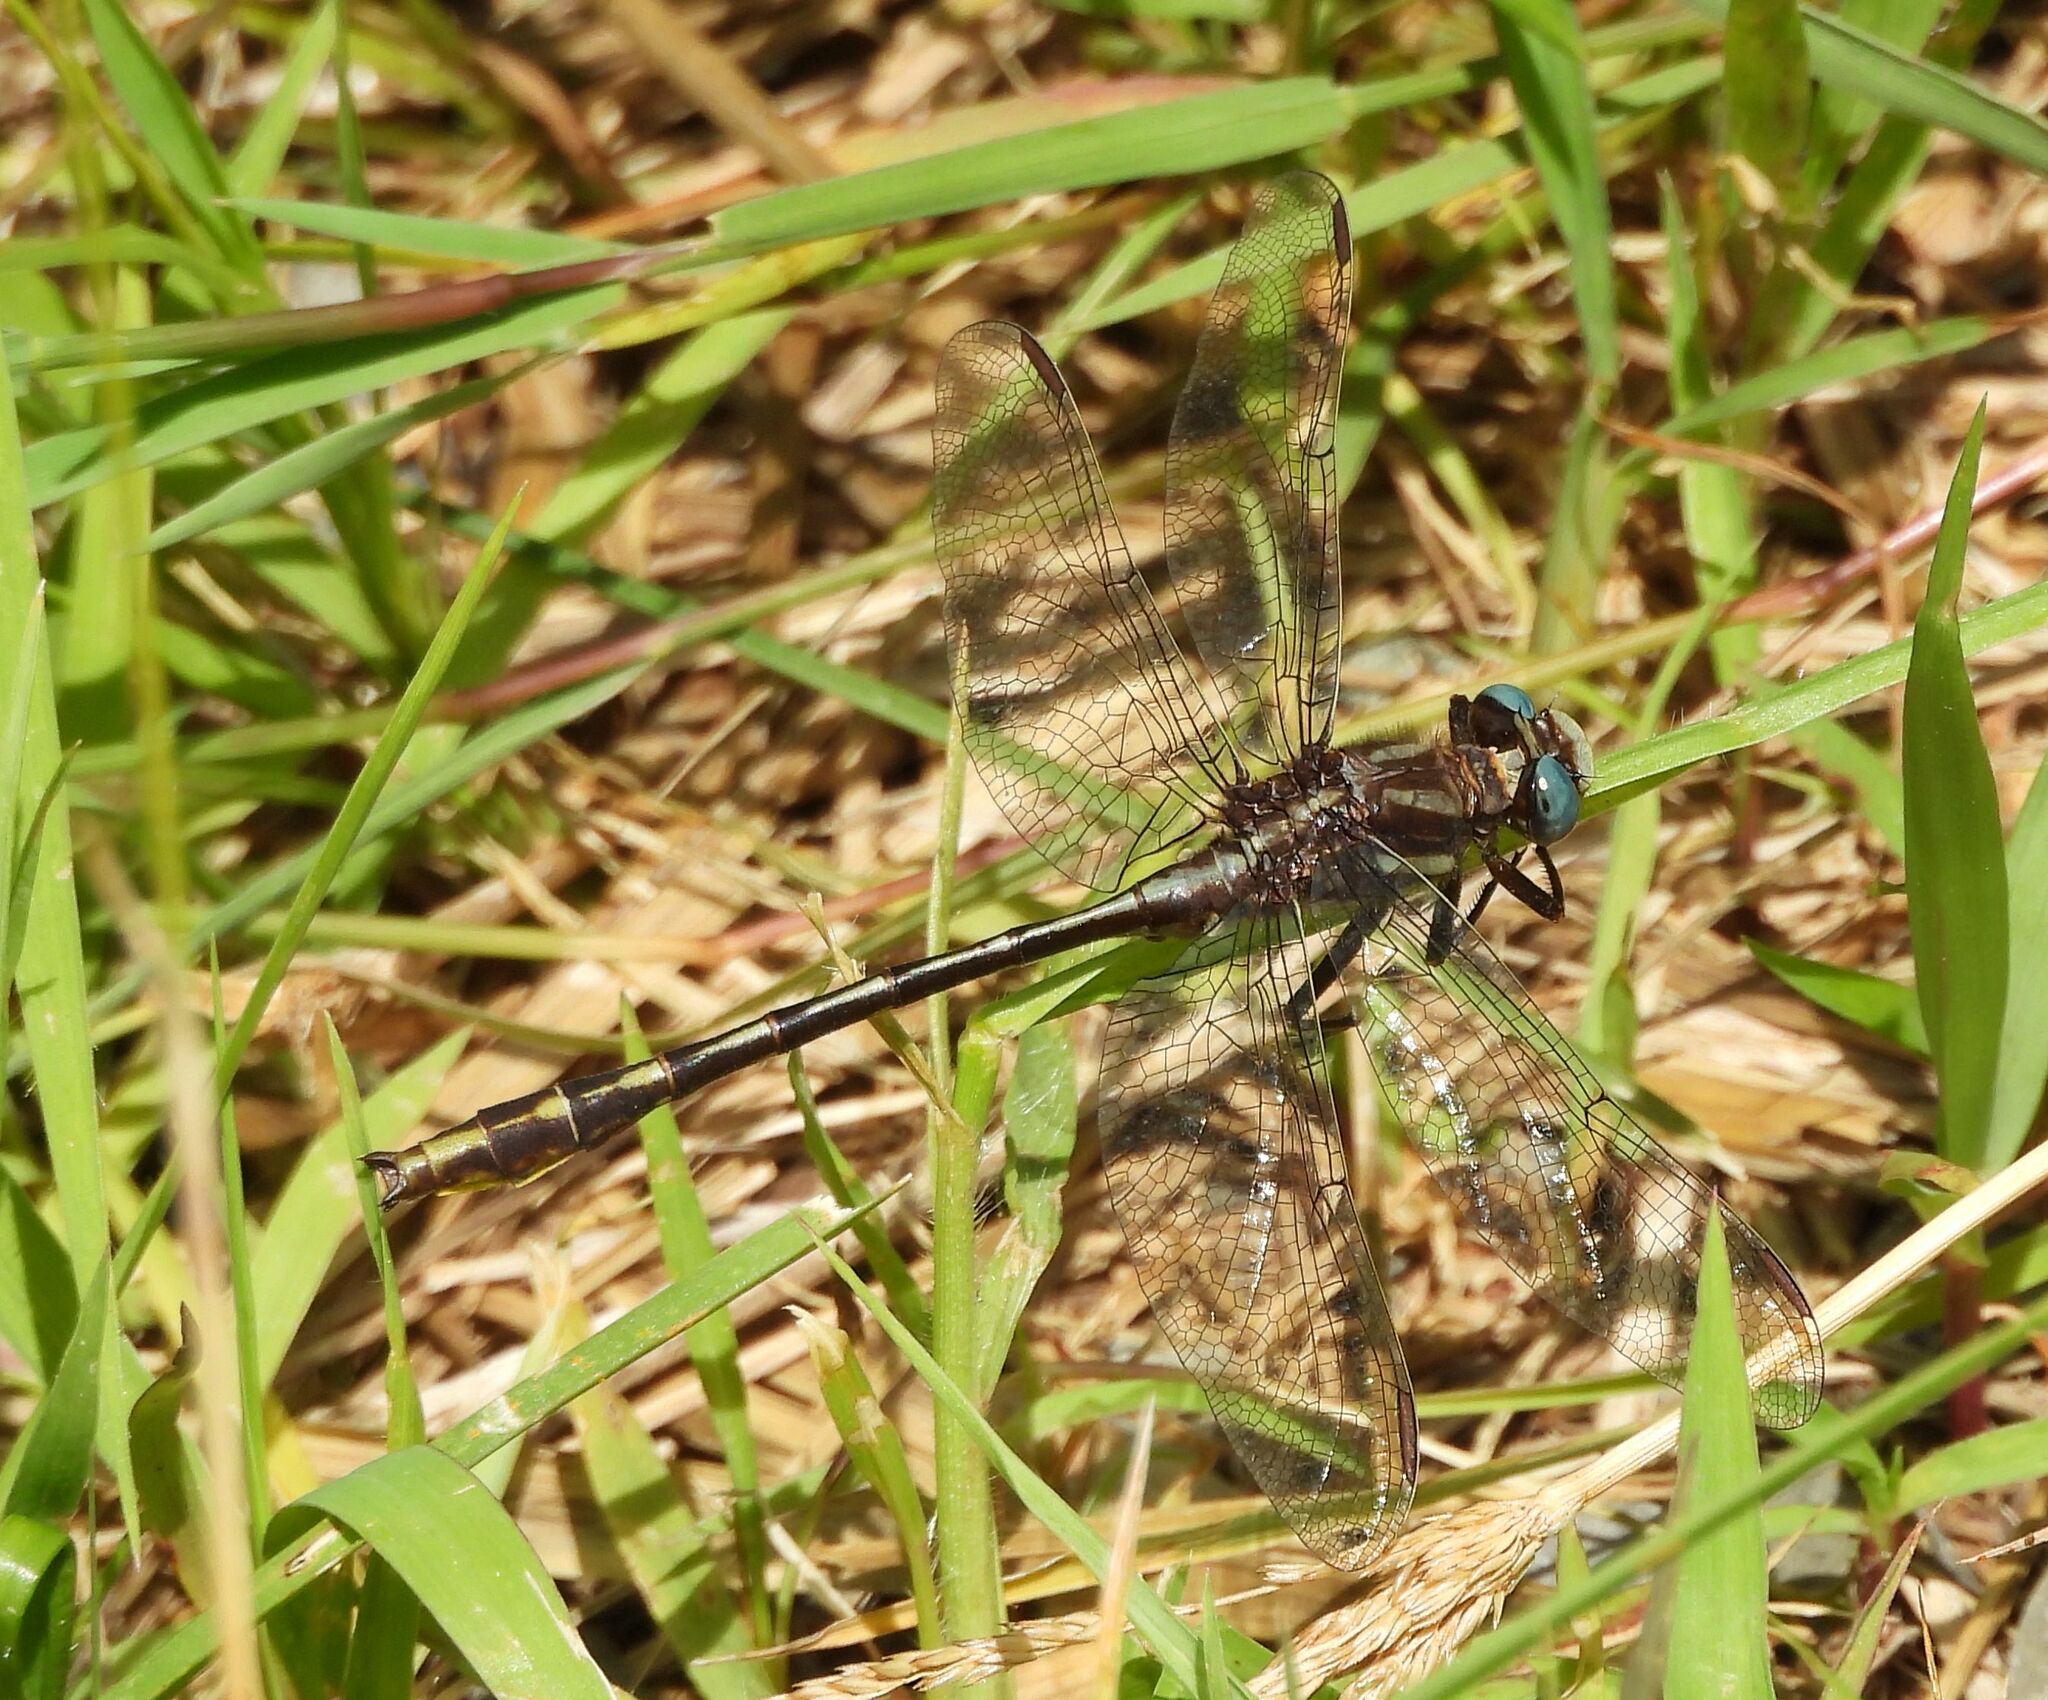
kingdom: Animalia
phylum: Arthropoda
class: Insecta
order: Odonata
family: Gomphidae
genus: Phanogomphus
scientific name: Phanogomphus exilis
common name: Lancet clubtail
